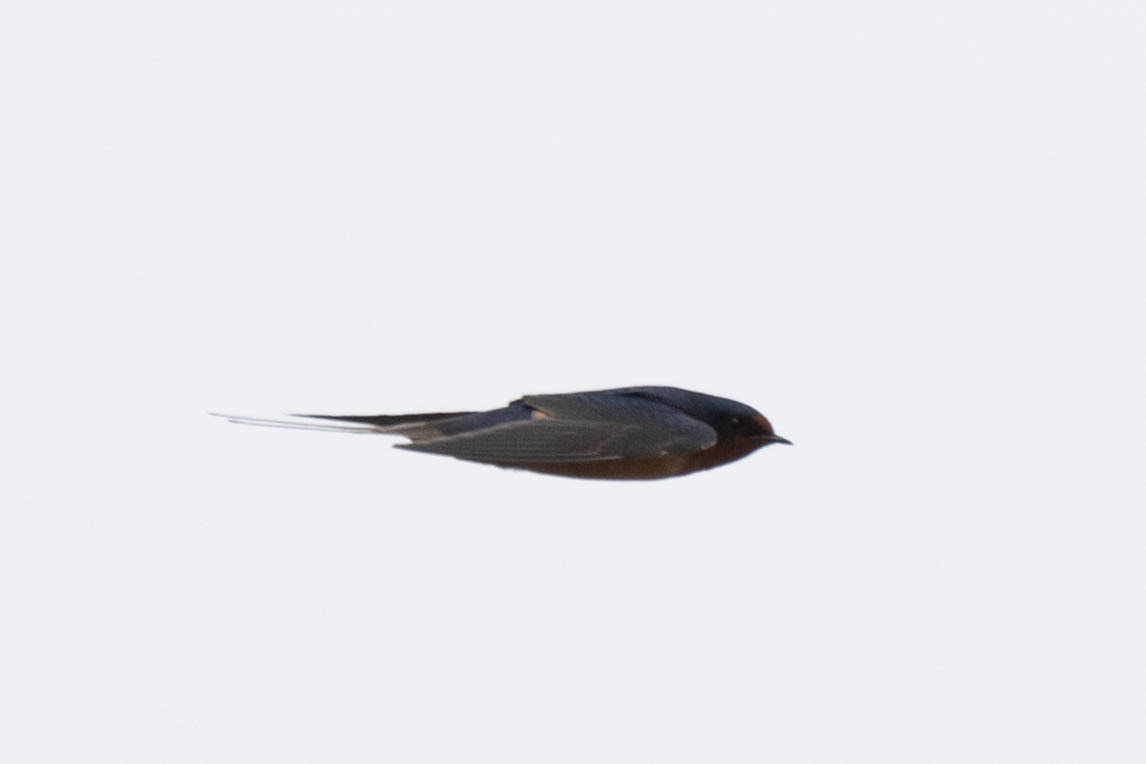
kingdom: Animalia
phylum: Chordata
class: Aves
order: Passeriformes
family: Hirundinidae
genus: Hirundo
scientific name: Hirundo rustica
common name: Barn swallow
